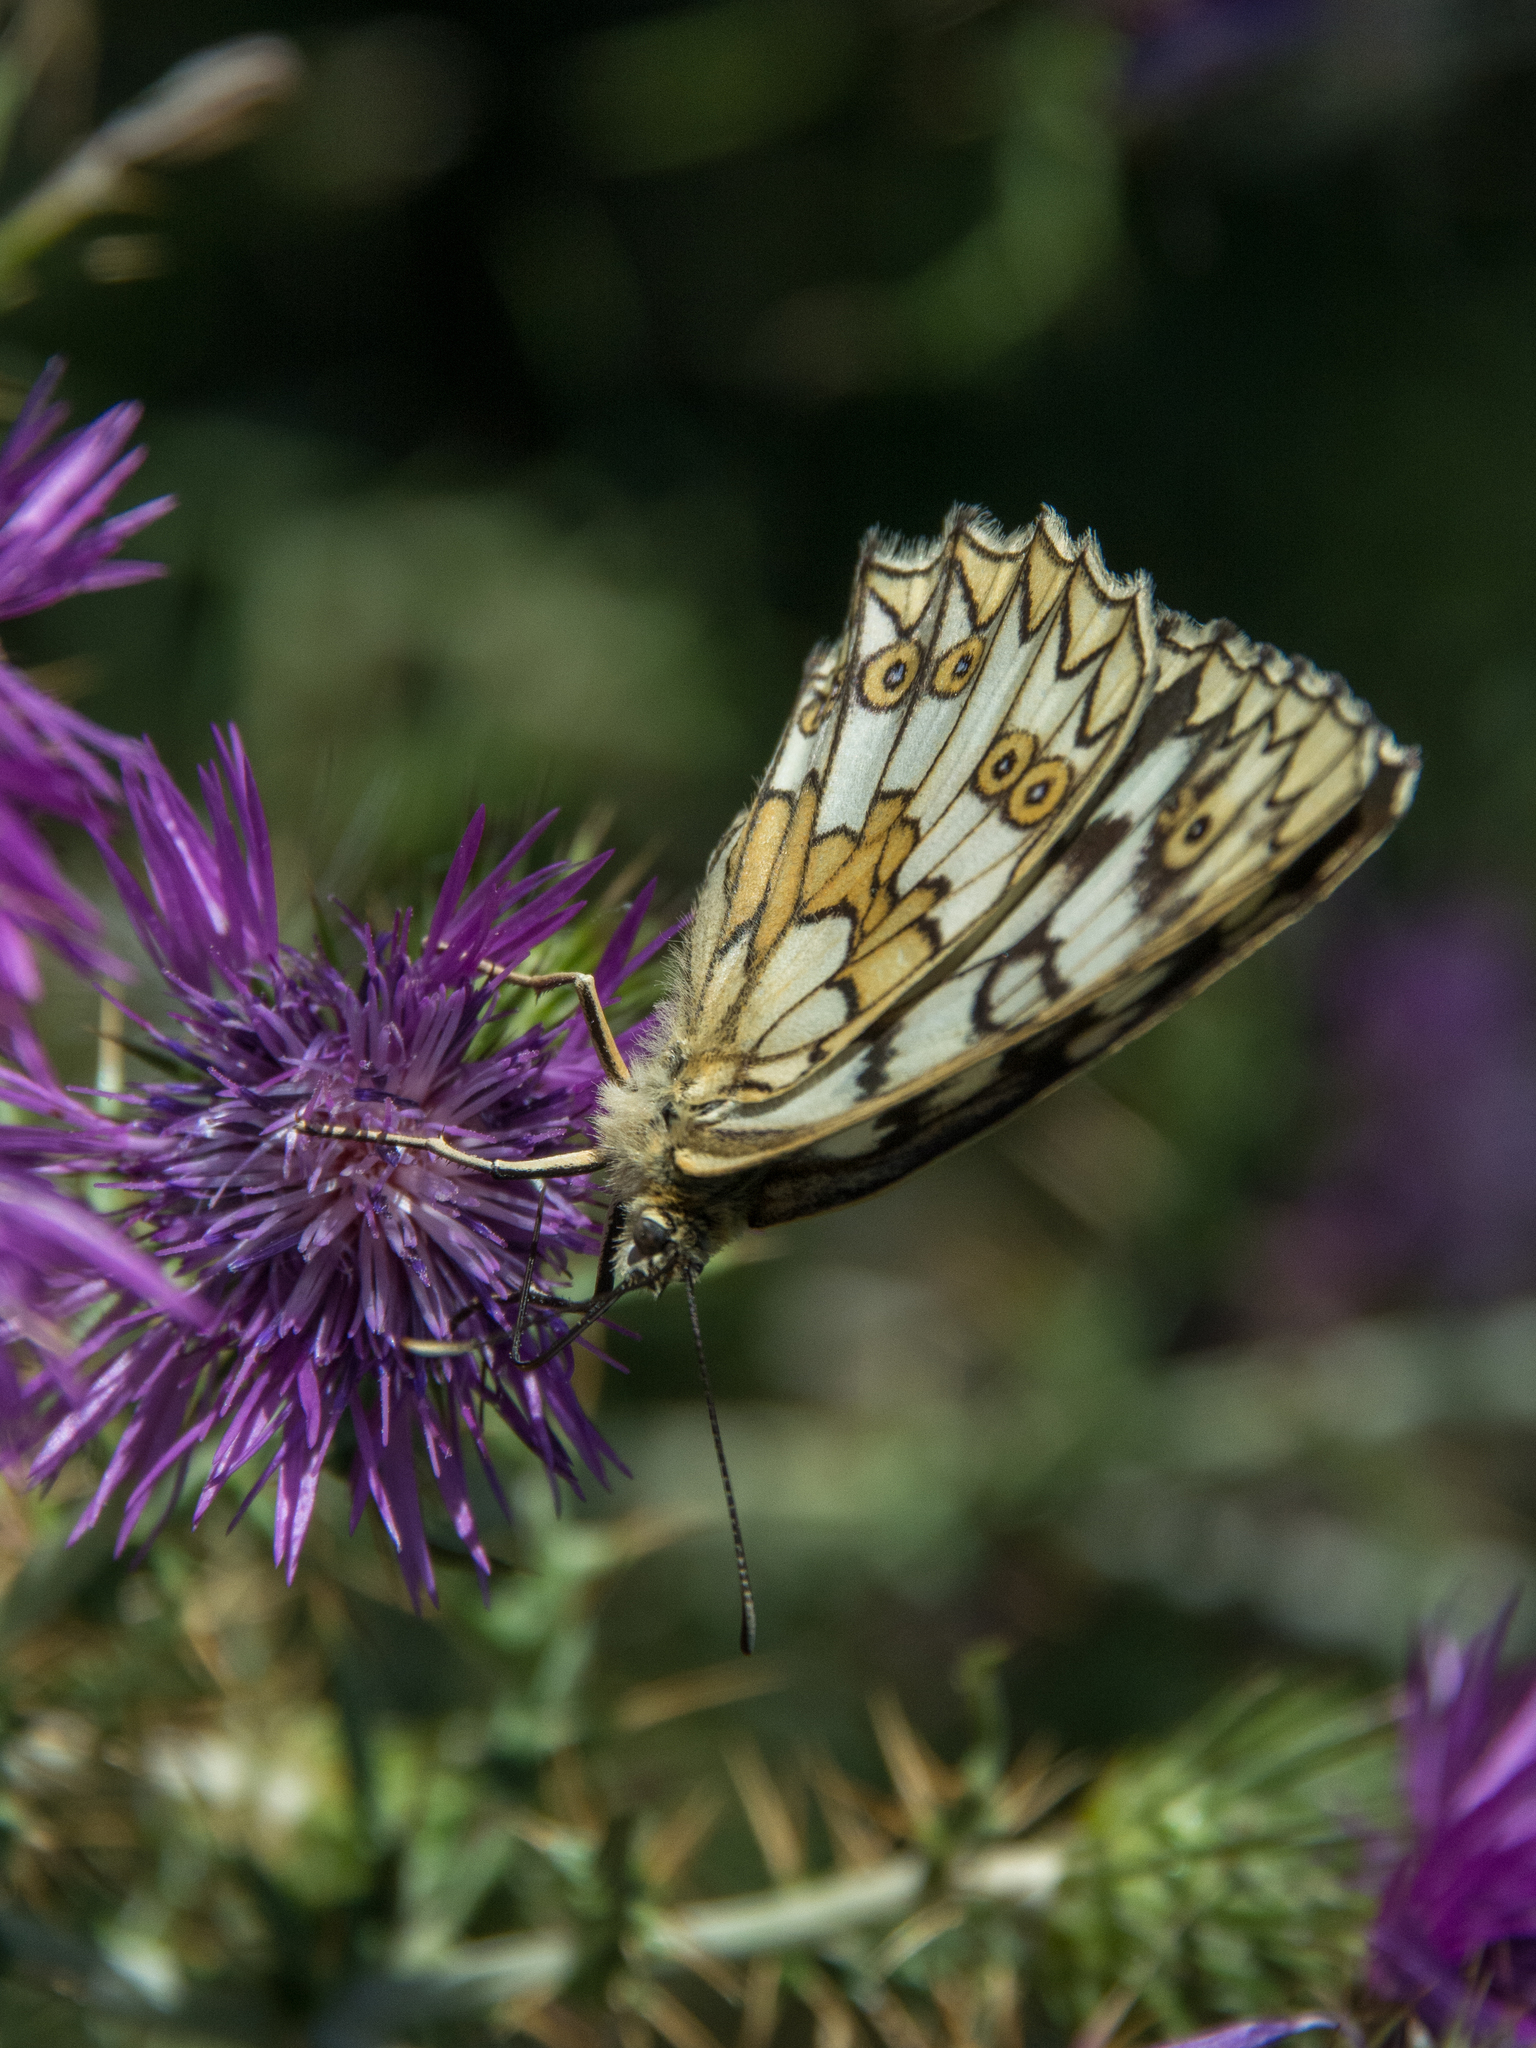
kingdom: Animalia
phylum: Arthropoda
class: Insecta
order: Lepidoptera
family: Nymphalidae
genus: Melanargia
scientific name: Melanargia japygia
